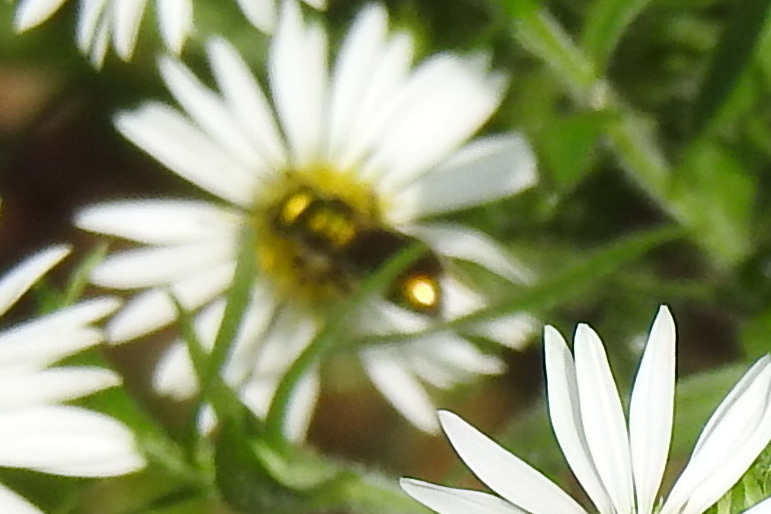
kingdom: Animalia
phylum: Arthropoda
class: Insecta
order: Hymenoptera
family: Halictidae
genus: Augochlora
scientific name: Augochlora pura
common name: Pure green sweat bee
